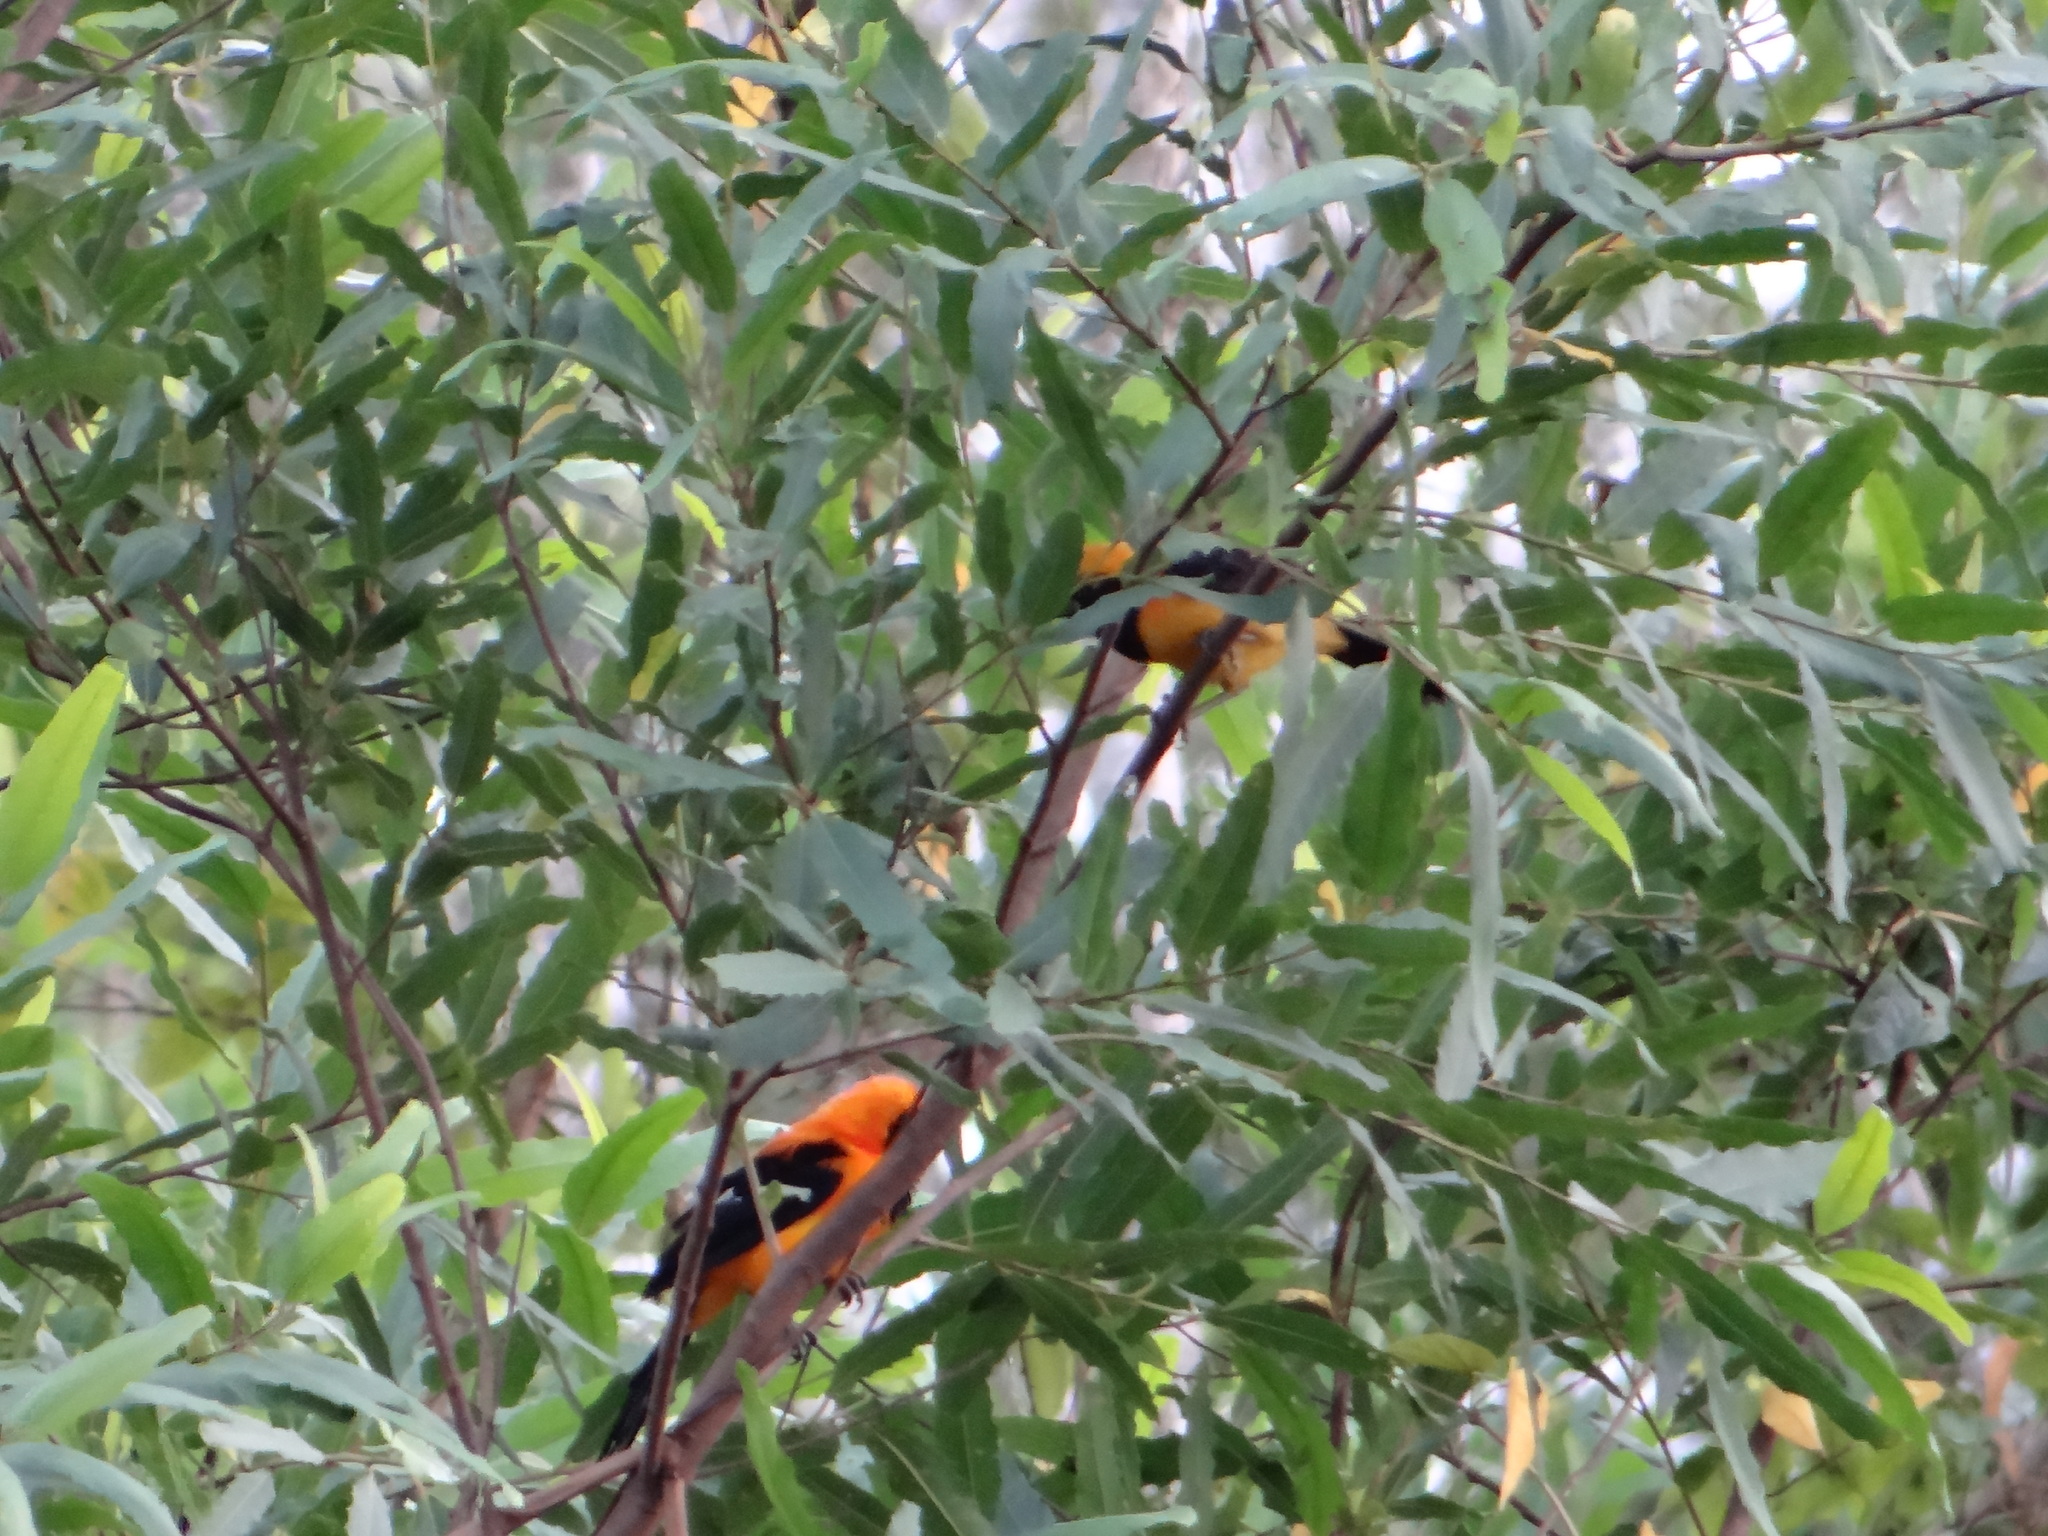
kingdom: Animalia
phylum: Chordata
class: Aves
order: Passeriformes
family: Icteridae
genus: Icterus
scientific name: Icterus icterus
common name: Venezuelan troupial
